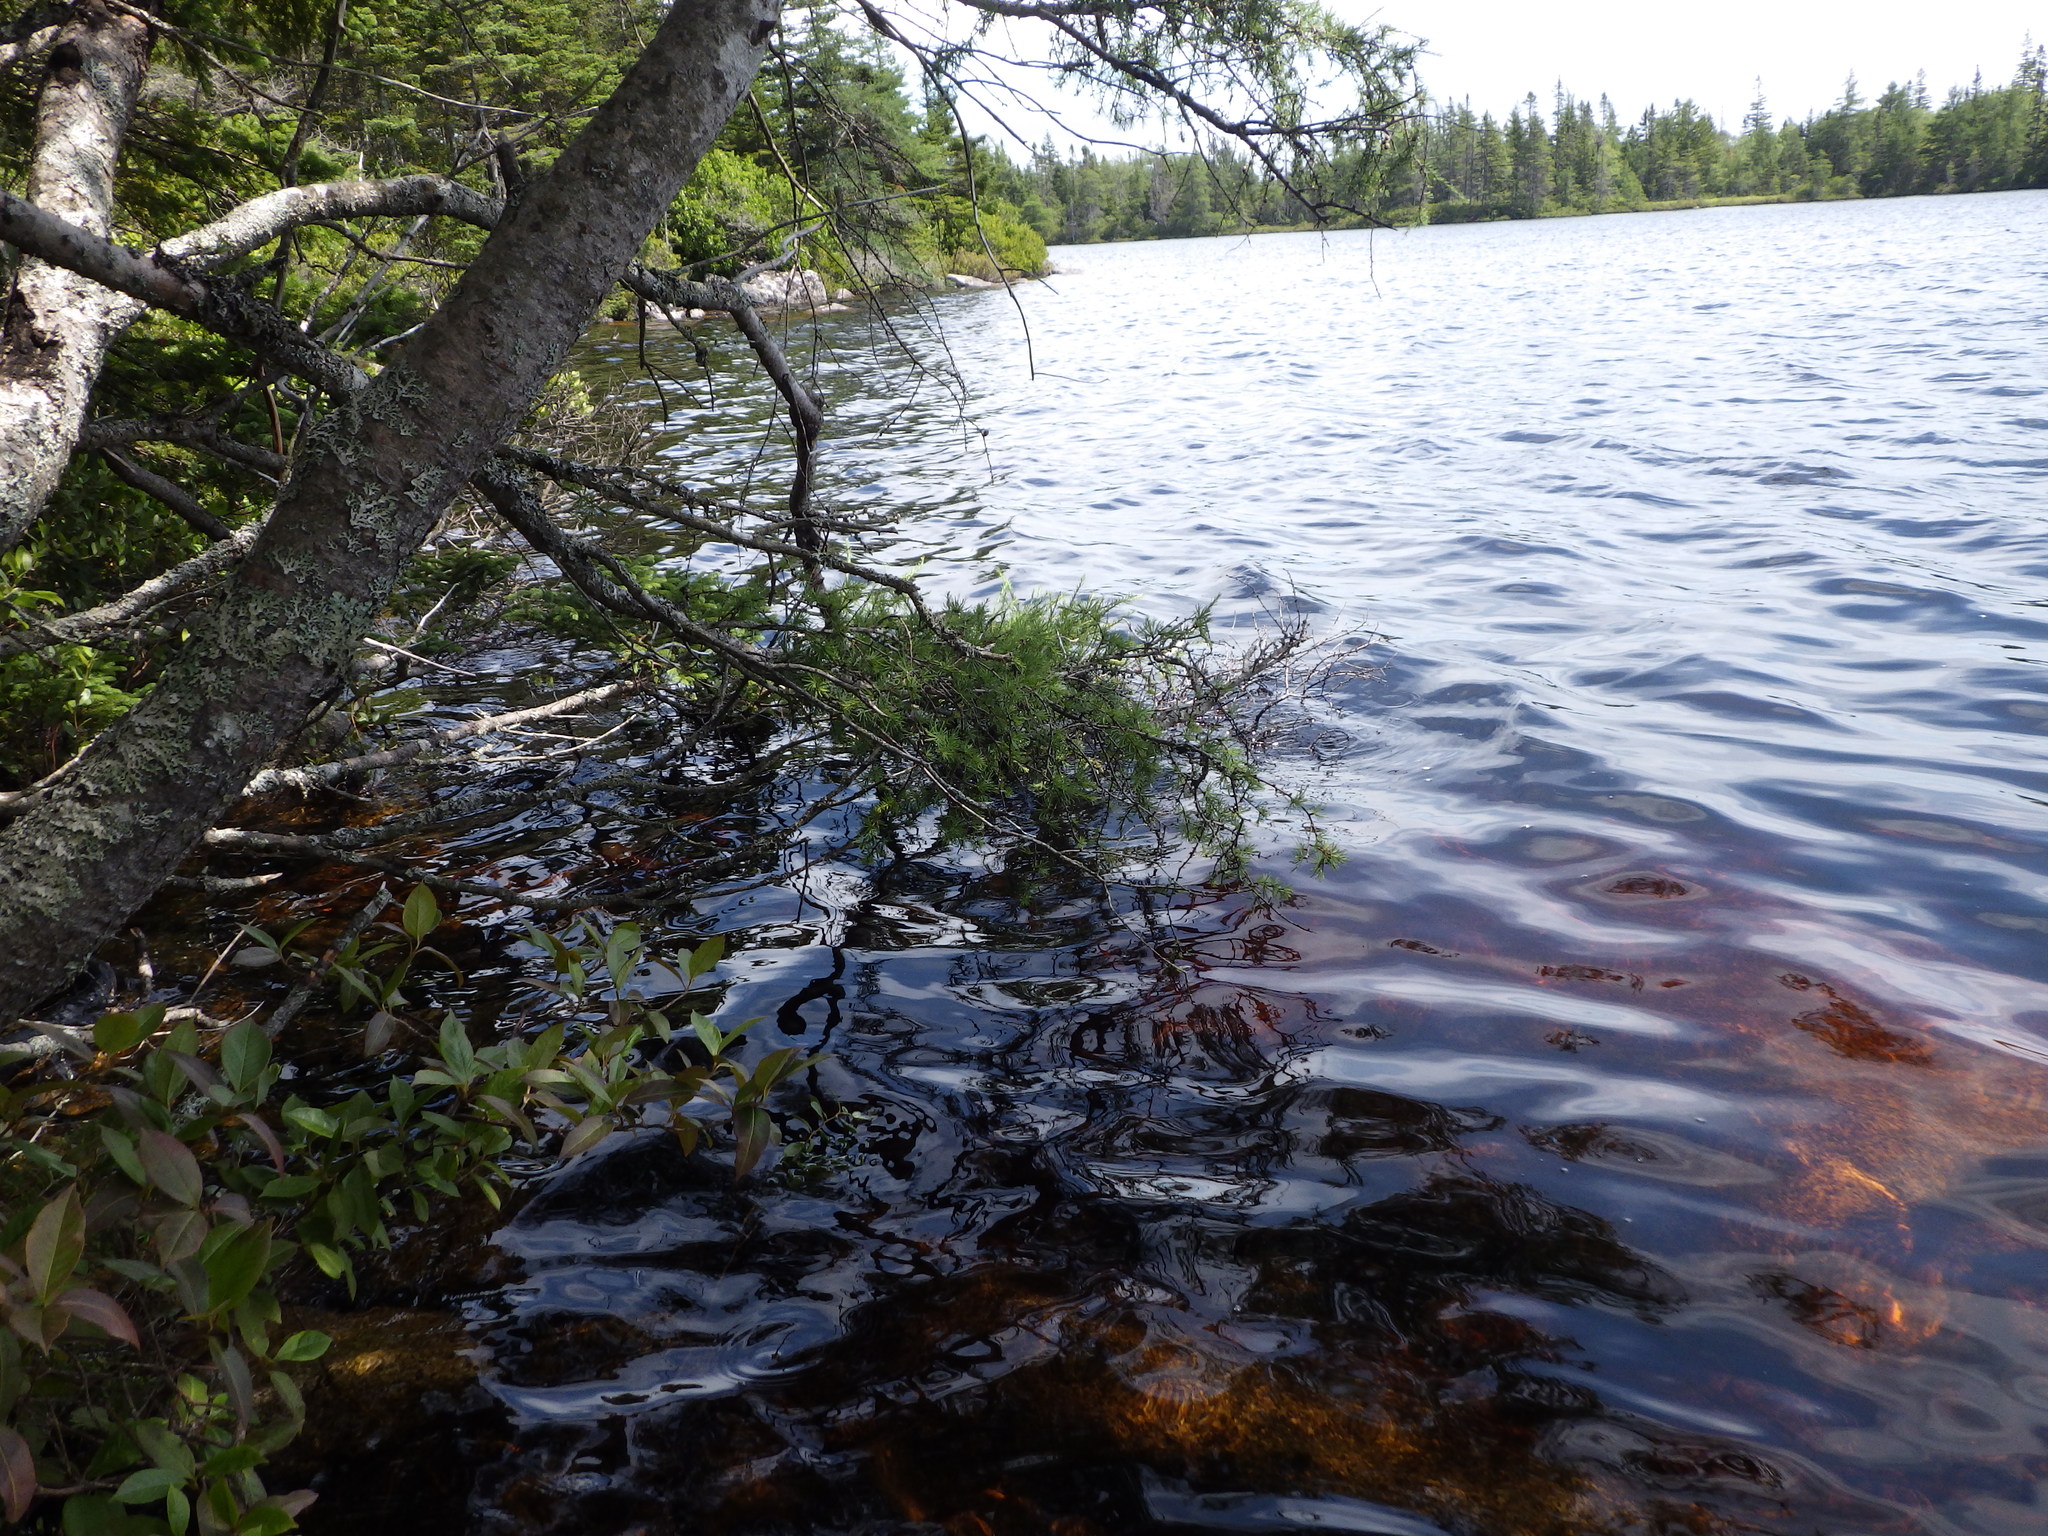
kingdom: Plantae
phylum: Tracheophyta
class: Pinopsida
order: Pinales
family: Pinaceae
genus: Larix
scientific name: Larix laricina
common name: American larch
